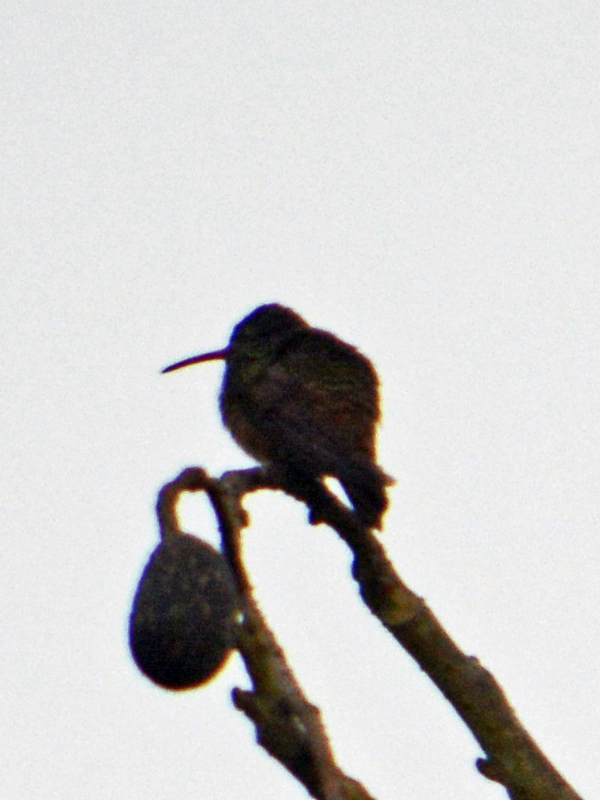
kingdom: Animalia
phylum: Chordata
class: Aves
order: Apodiformes
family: Trochilidae
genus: Amazilia
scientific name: Amazilia yucatanensis
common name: Buff-bellied hummingbird
